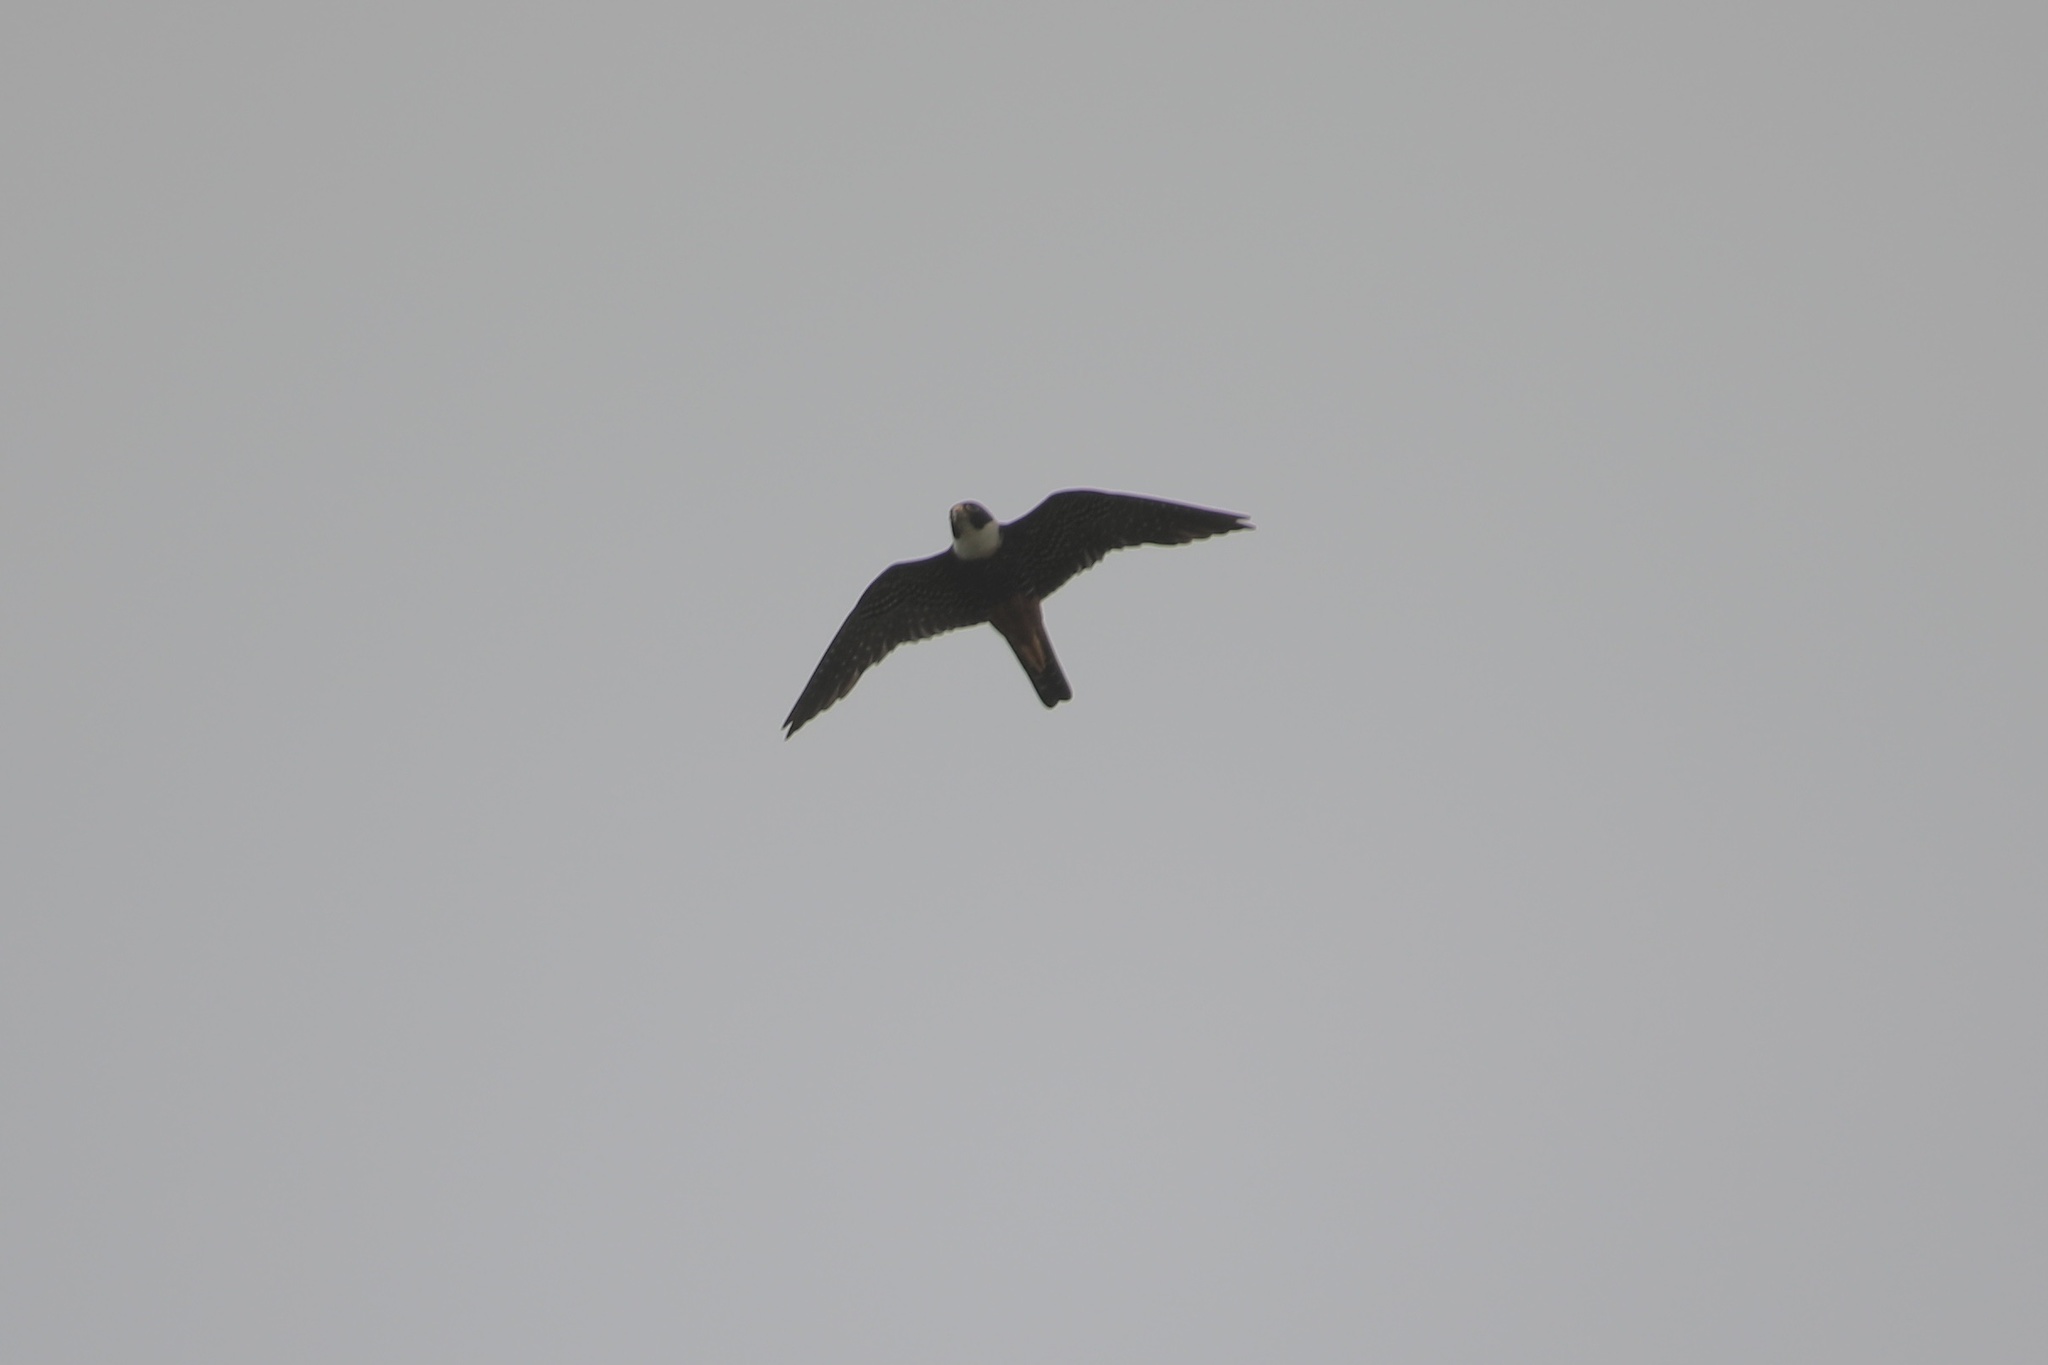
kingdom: Animalia
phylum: Chordata
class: Aves
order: Falconiformes
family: Falconidae
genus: Falco
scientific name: Falco rufigularis
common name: Bat falcon
